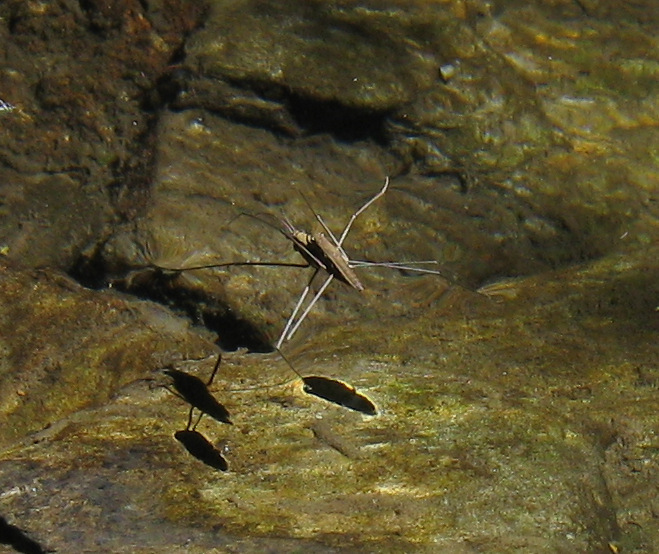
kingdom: Animalia
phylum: Arthropoda
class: Insecta
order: Hemiptera
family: Gerridae
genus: Aquarius
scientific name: Aquarius najas
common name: River skater
